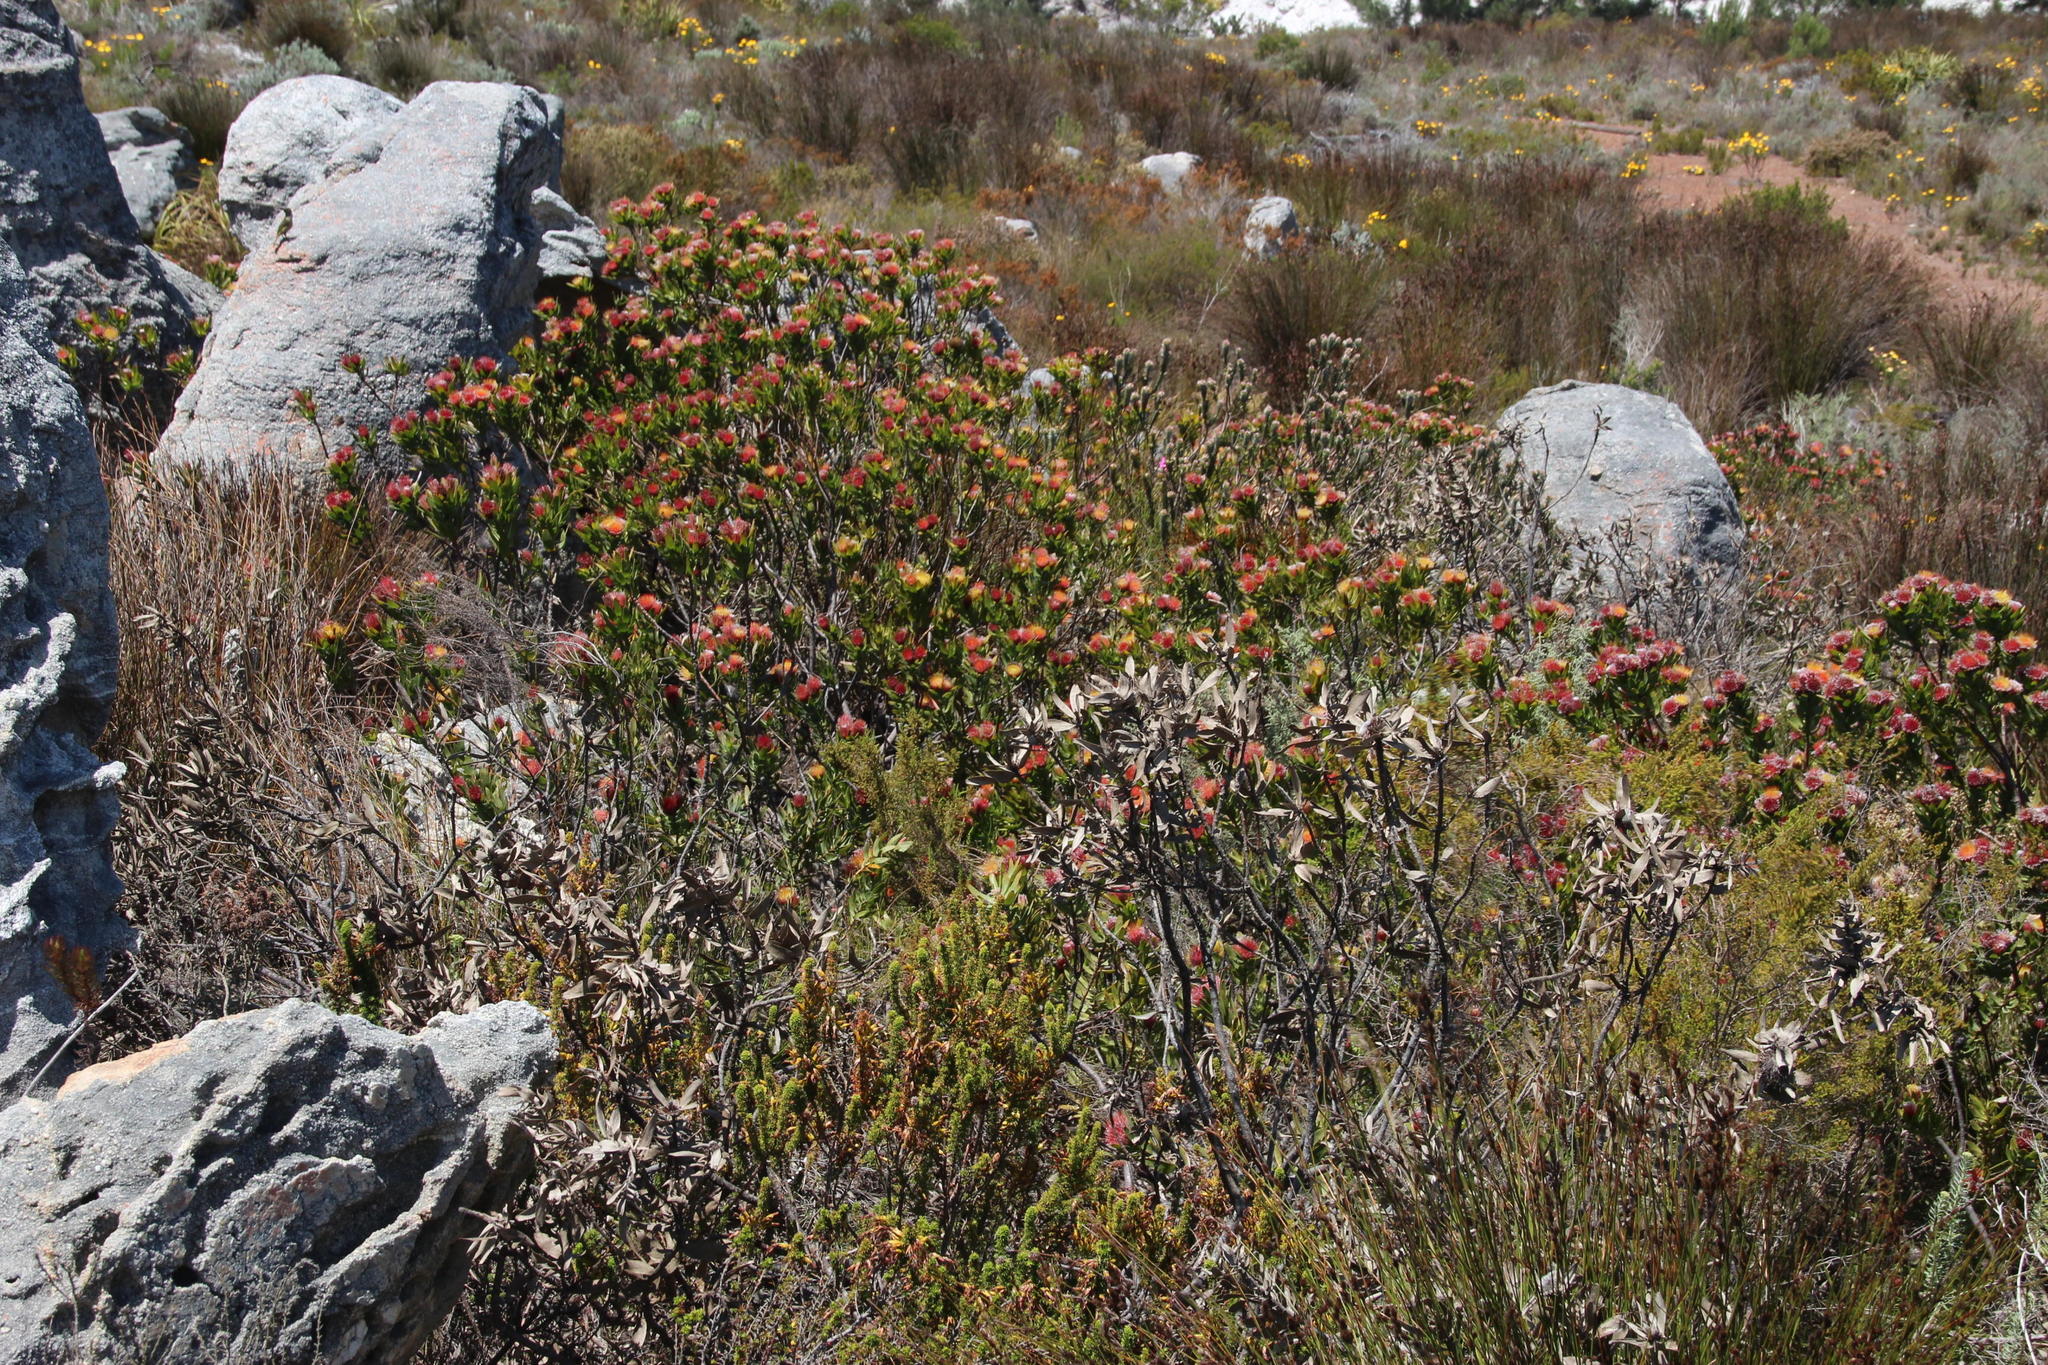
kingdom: Plantae
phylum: Tracheophyta
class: Magnoliopsida
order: Proteales
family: Proteaceae
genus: Leucospermum
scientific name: Leucospermum oleifolium
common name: Matches
